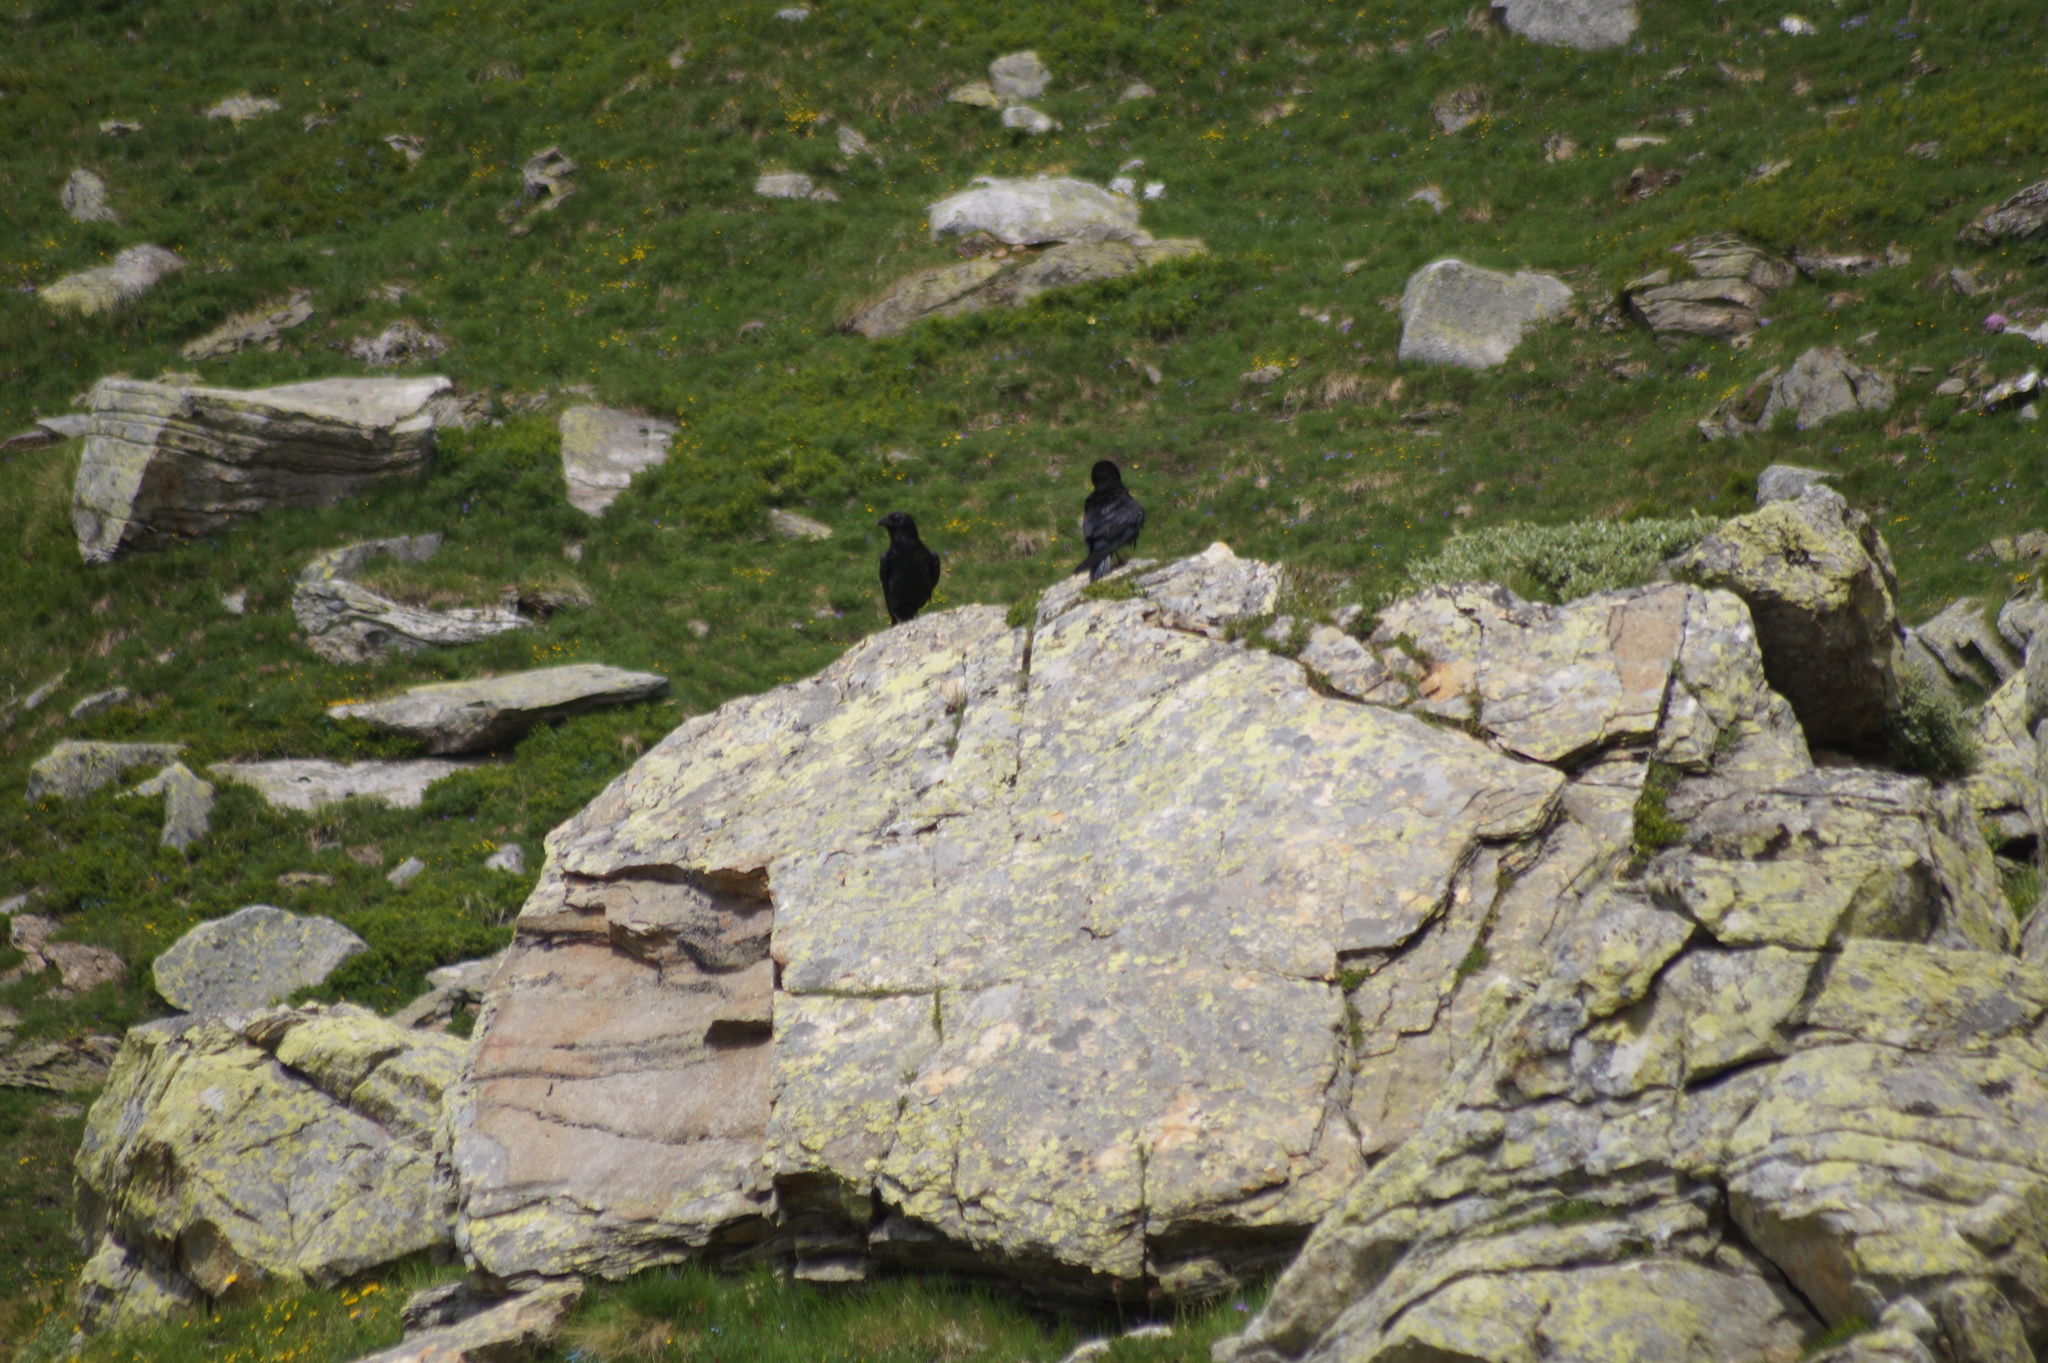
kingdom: Animalia
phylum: Chordata
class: Aves
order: Passeriformes
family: Corvidae
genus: Corvus
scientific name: Corvus corax
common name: Common raven
